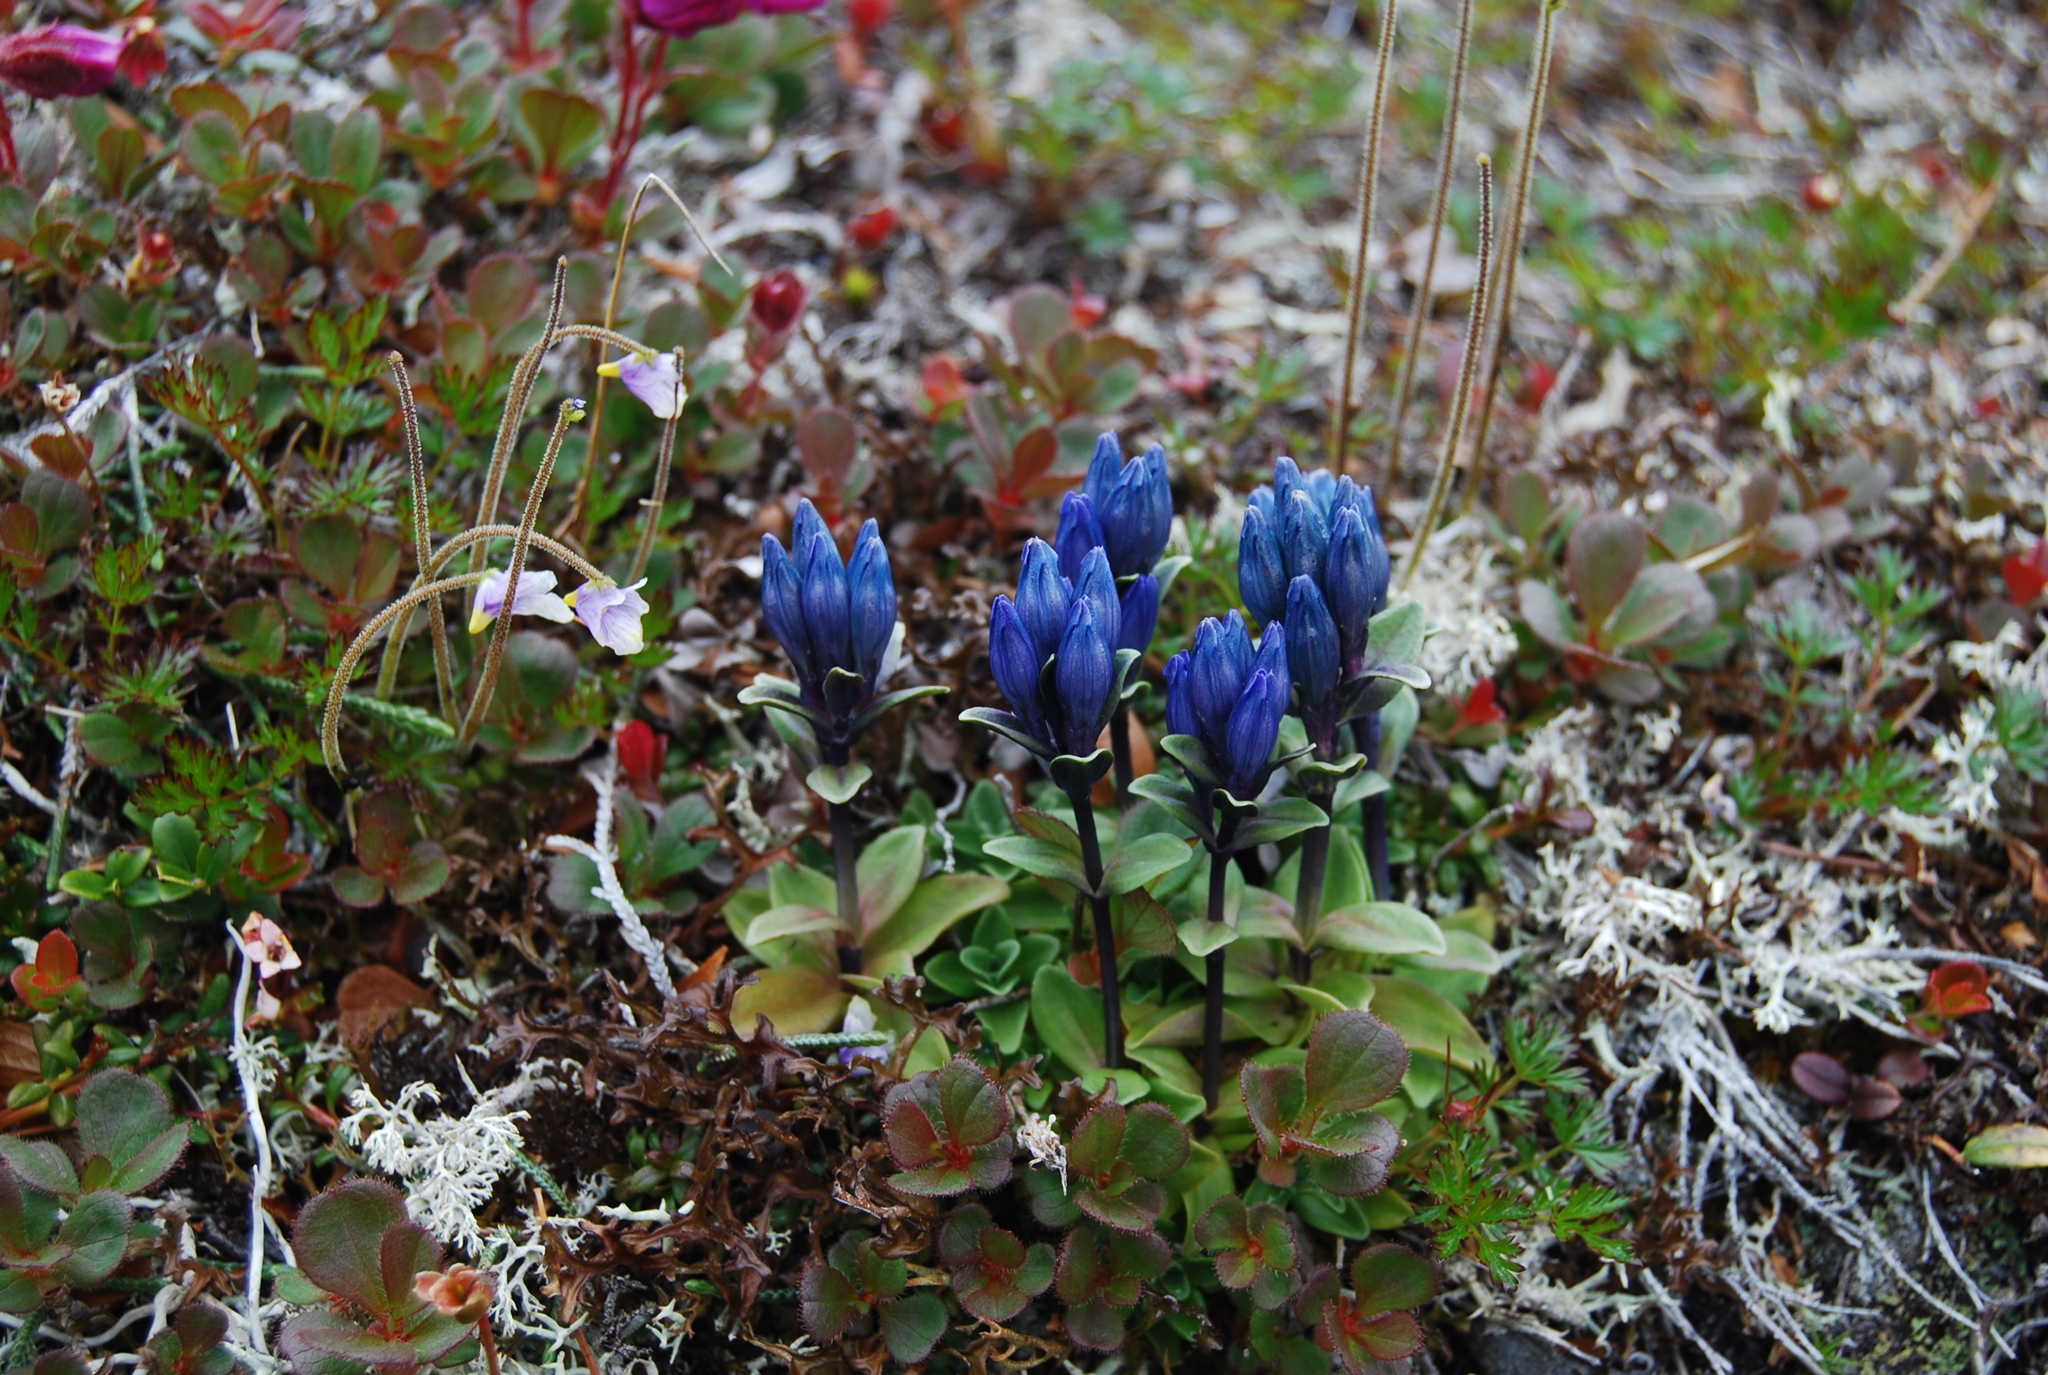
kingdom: Plantae
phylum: Tracheophyta
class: Magnoliopsida
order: Gentianales
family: Gentianaceae
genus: Gentiana
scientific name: Gentiana glauca
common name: Alpine gentian
